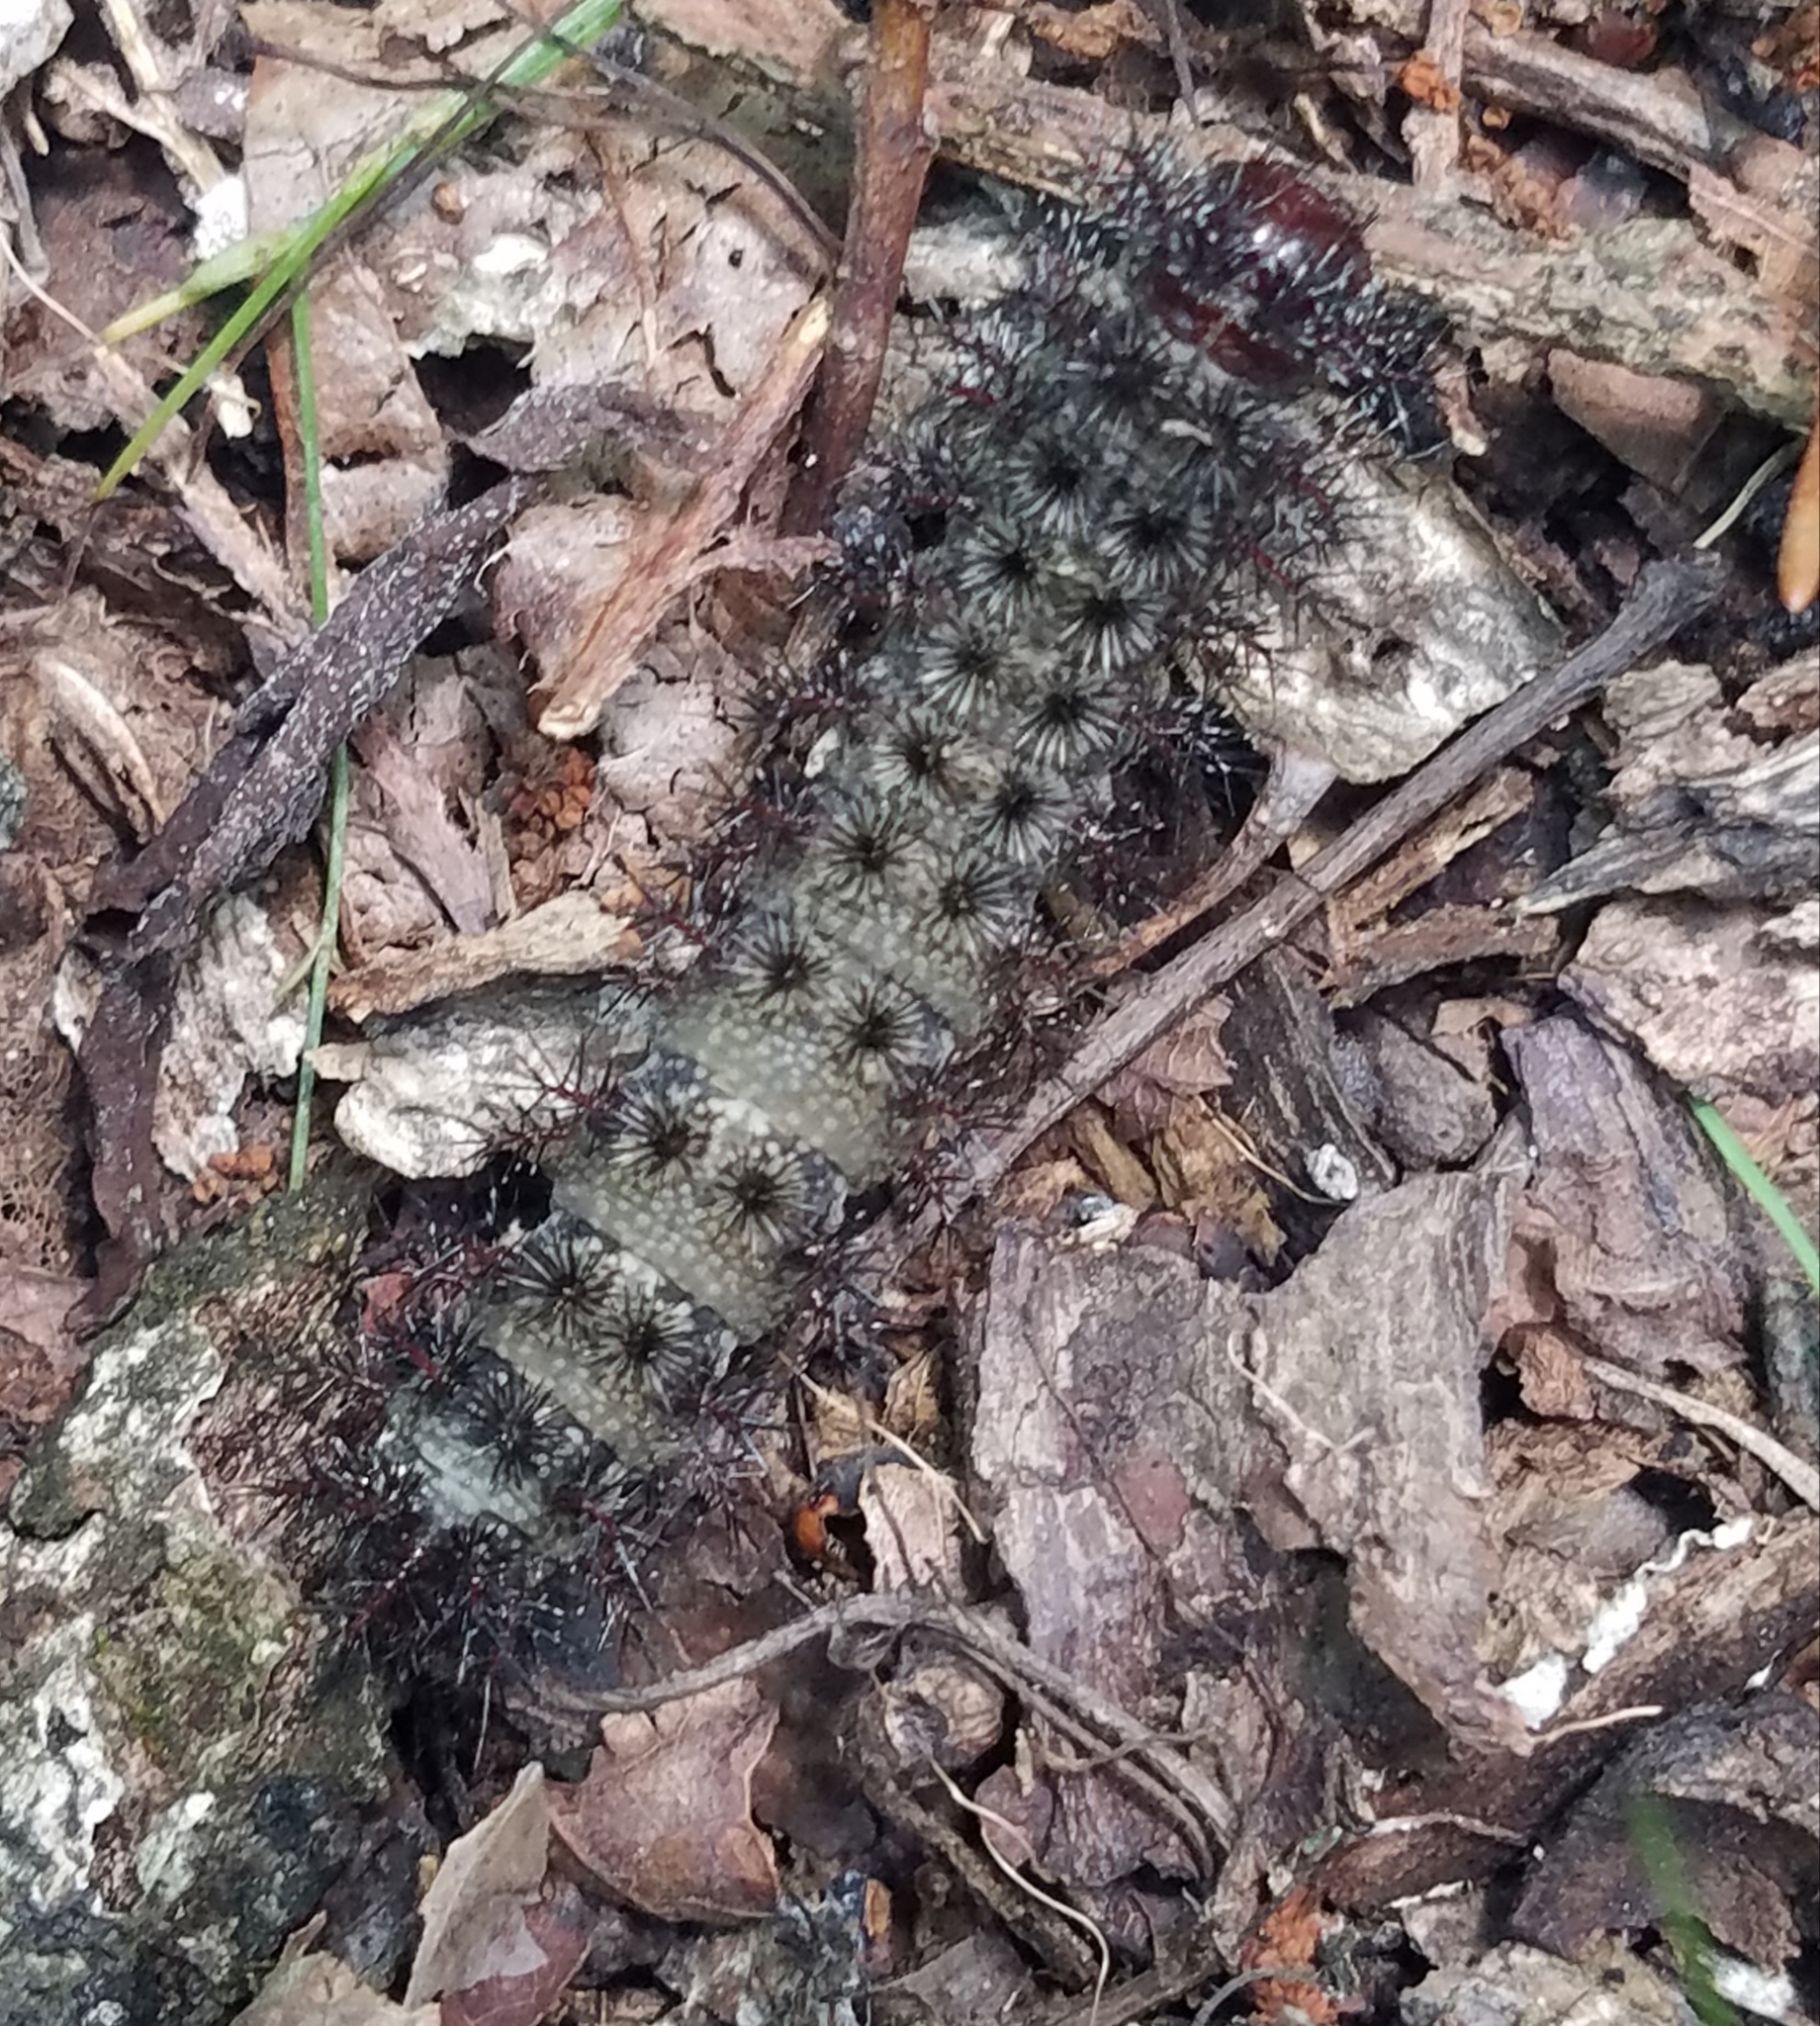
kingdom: Animalia
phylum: Arthropoda
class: Insecta
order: Lepidoptera
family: Saturniidae
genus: Hemileuca
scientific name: Hemileuca maia
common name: Eastern buckmoth
